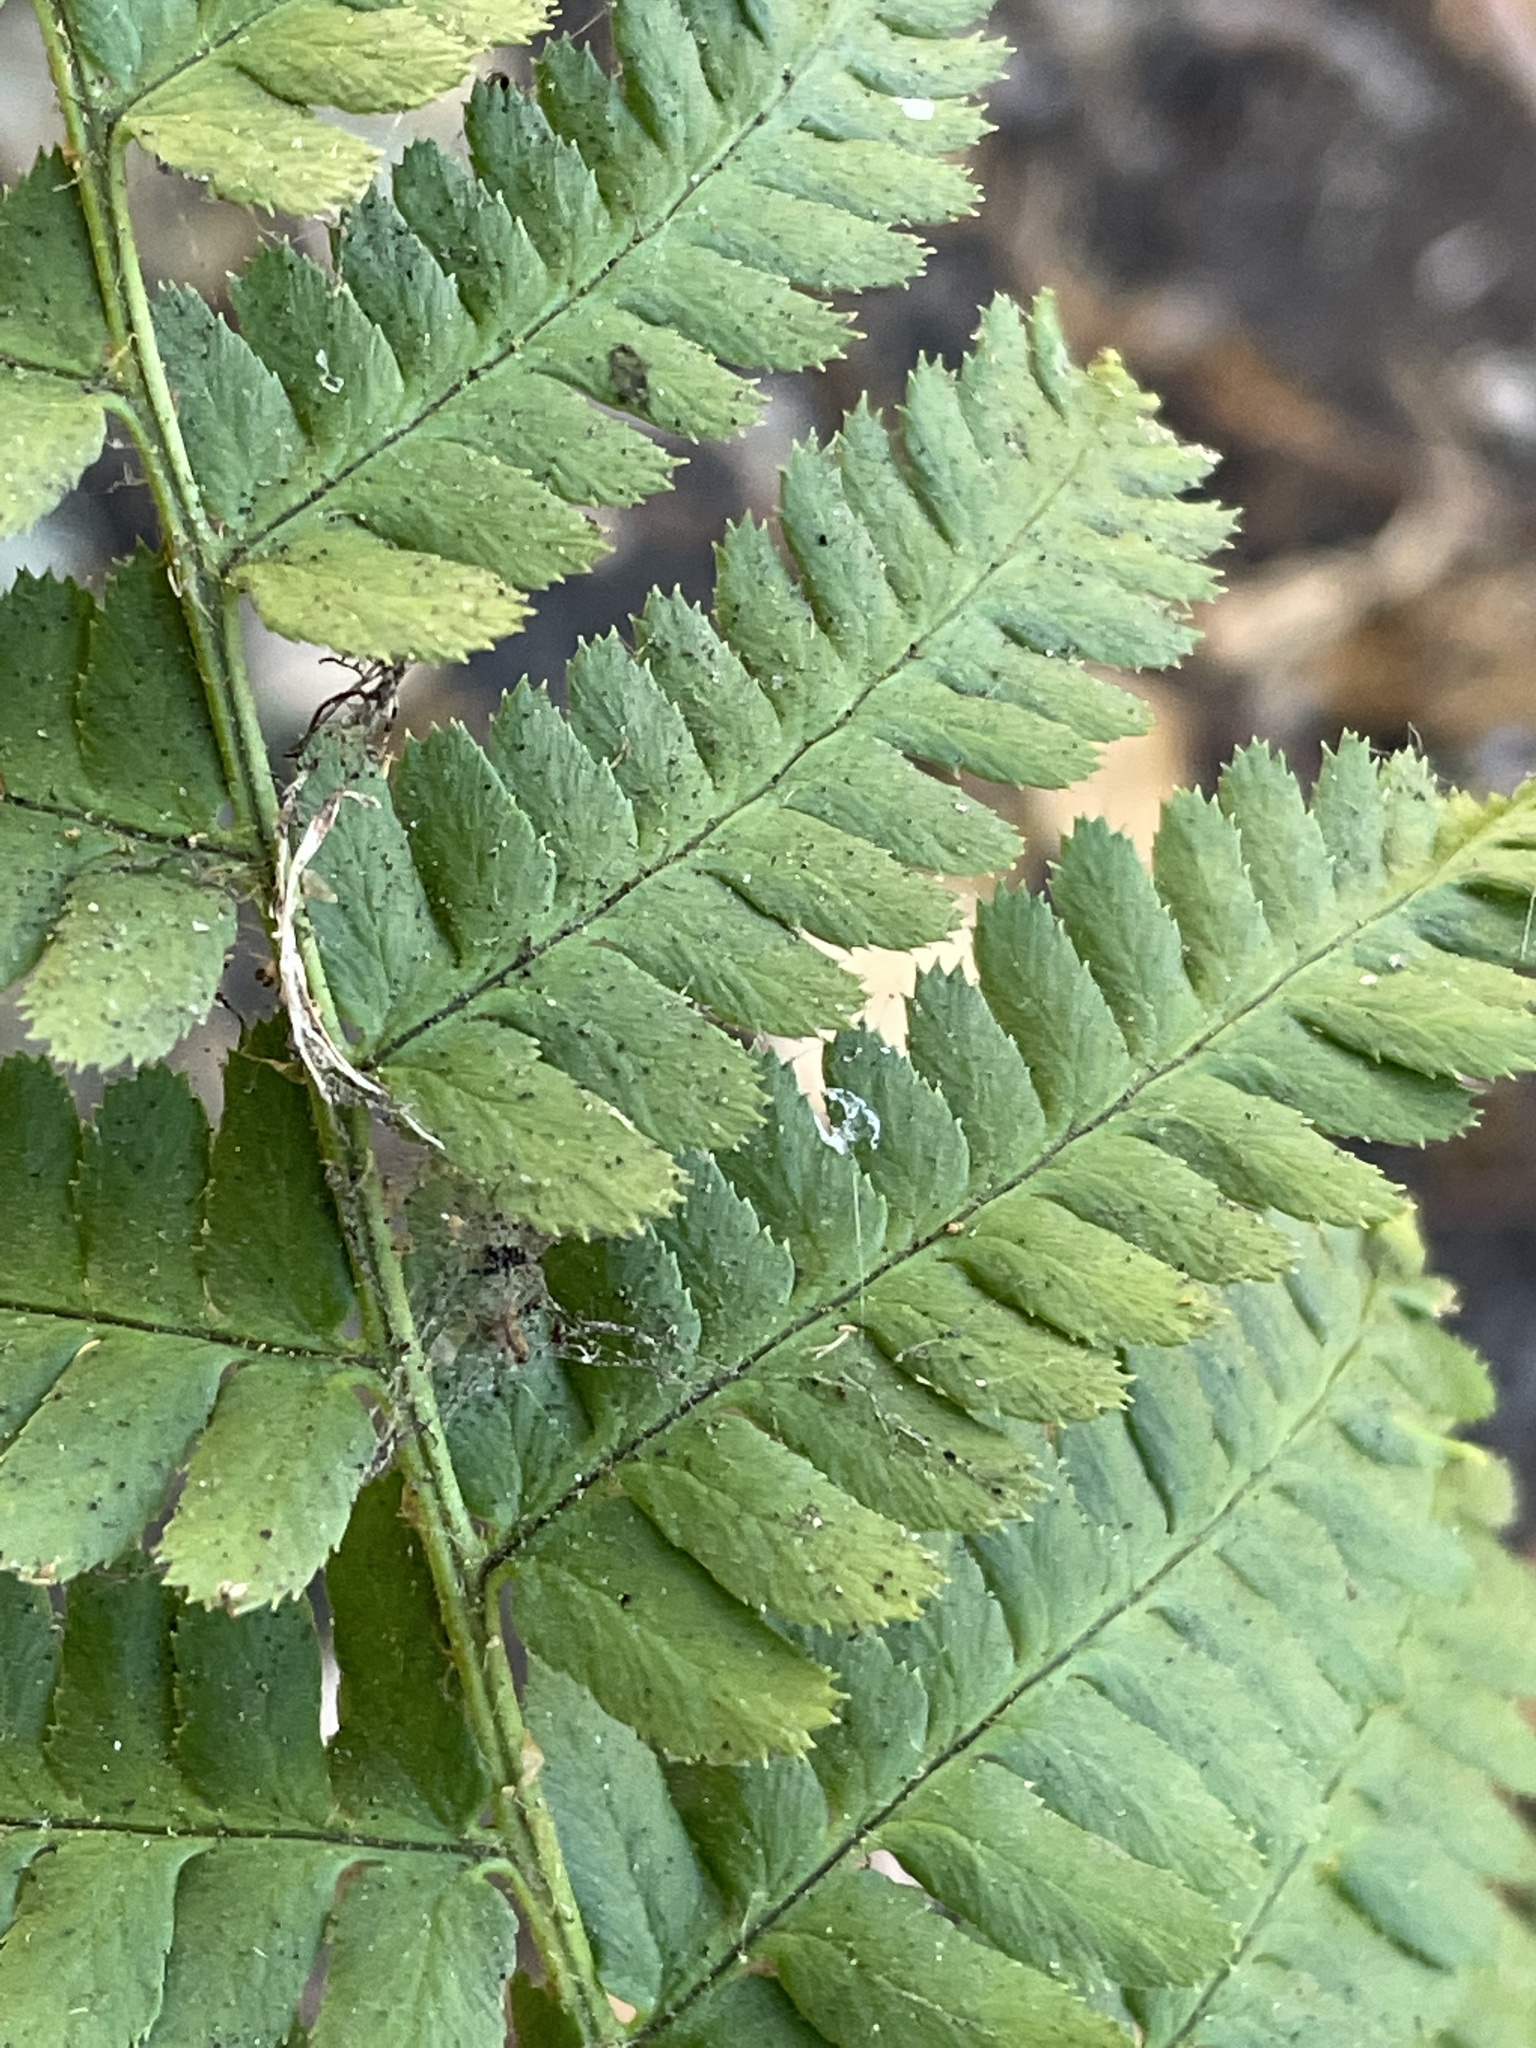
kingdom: Plantae
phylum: Tracheophyta
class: Polypodiopsida
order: Polypodiales
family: Dryopteridaceae
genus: Dryopteris
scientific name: Dryopteris arguta
